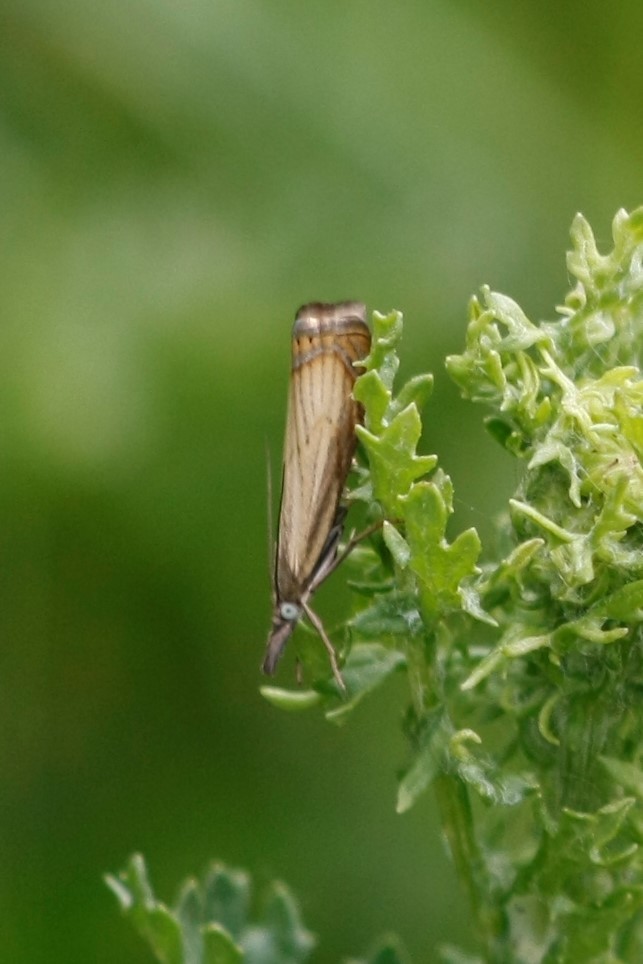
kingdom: Animalia
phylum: Arthropoda
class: Insecta
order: Lepidoptera
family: Crambidae
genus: Chrysoteuchia
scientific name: Chrysoteuchia culmella
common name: Garden grass-veneer
